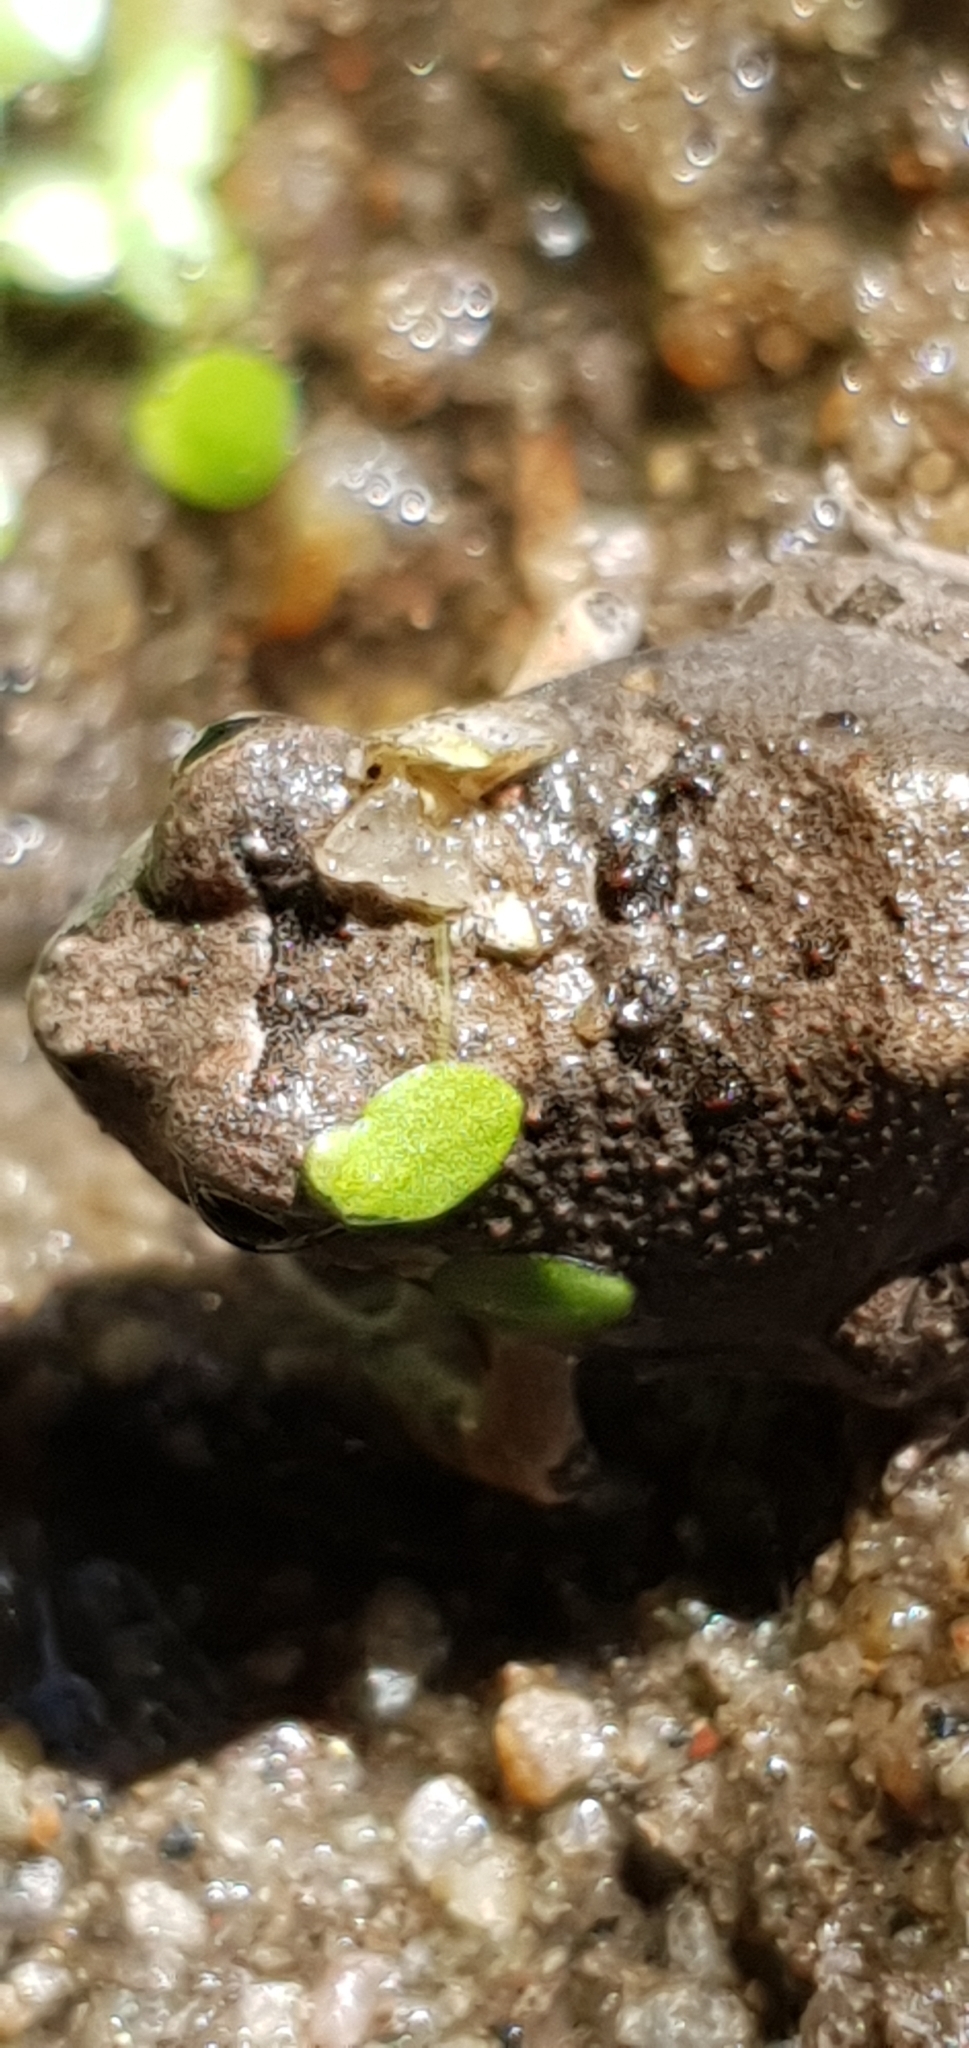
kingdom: Animalia
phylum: Chordata
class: Amphibia
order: Anura
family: Limnodynastidae
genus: Platyplectrum
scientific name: Platyplectrum ornatum
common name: Ornate burrowing frog
